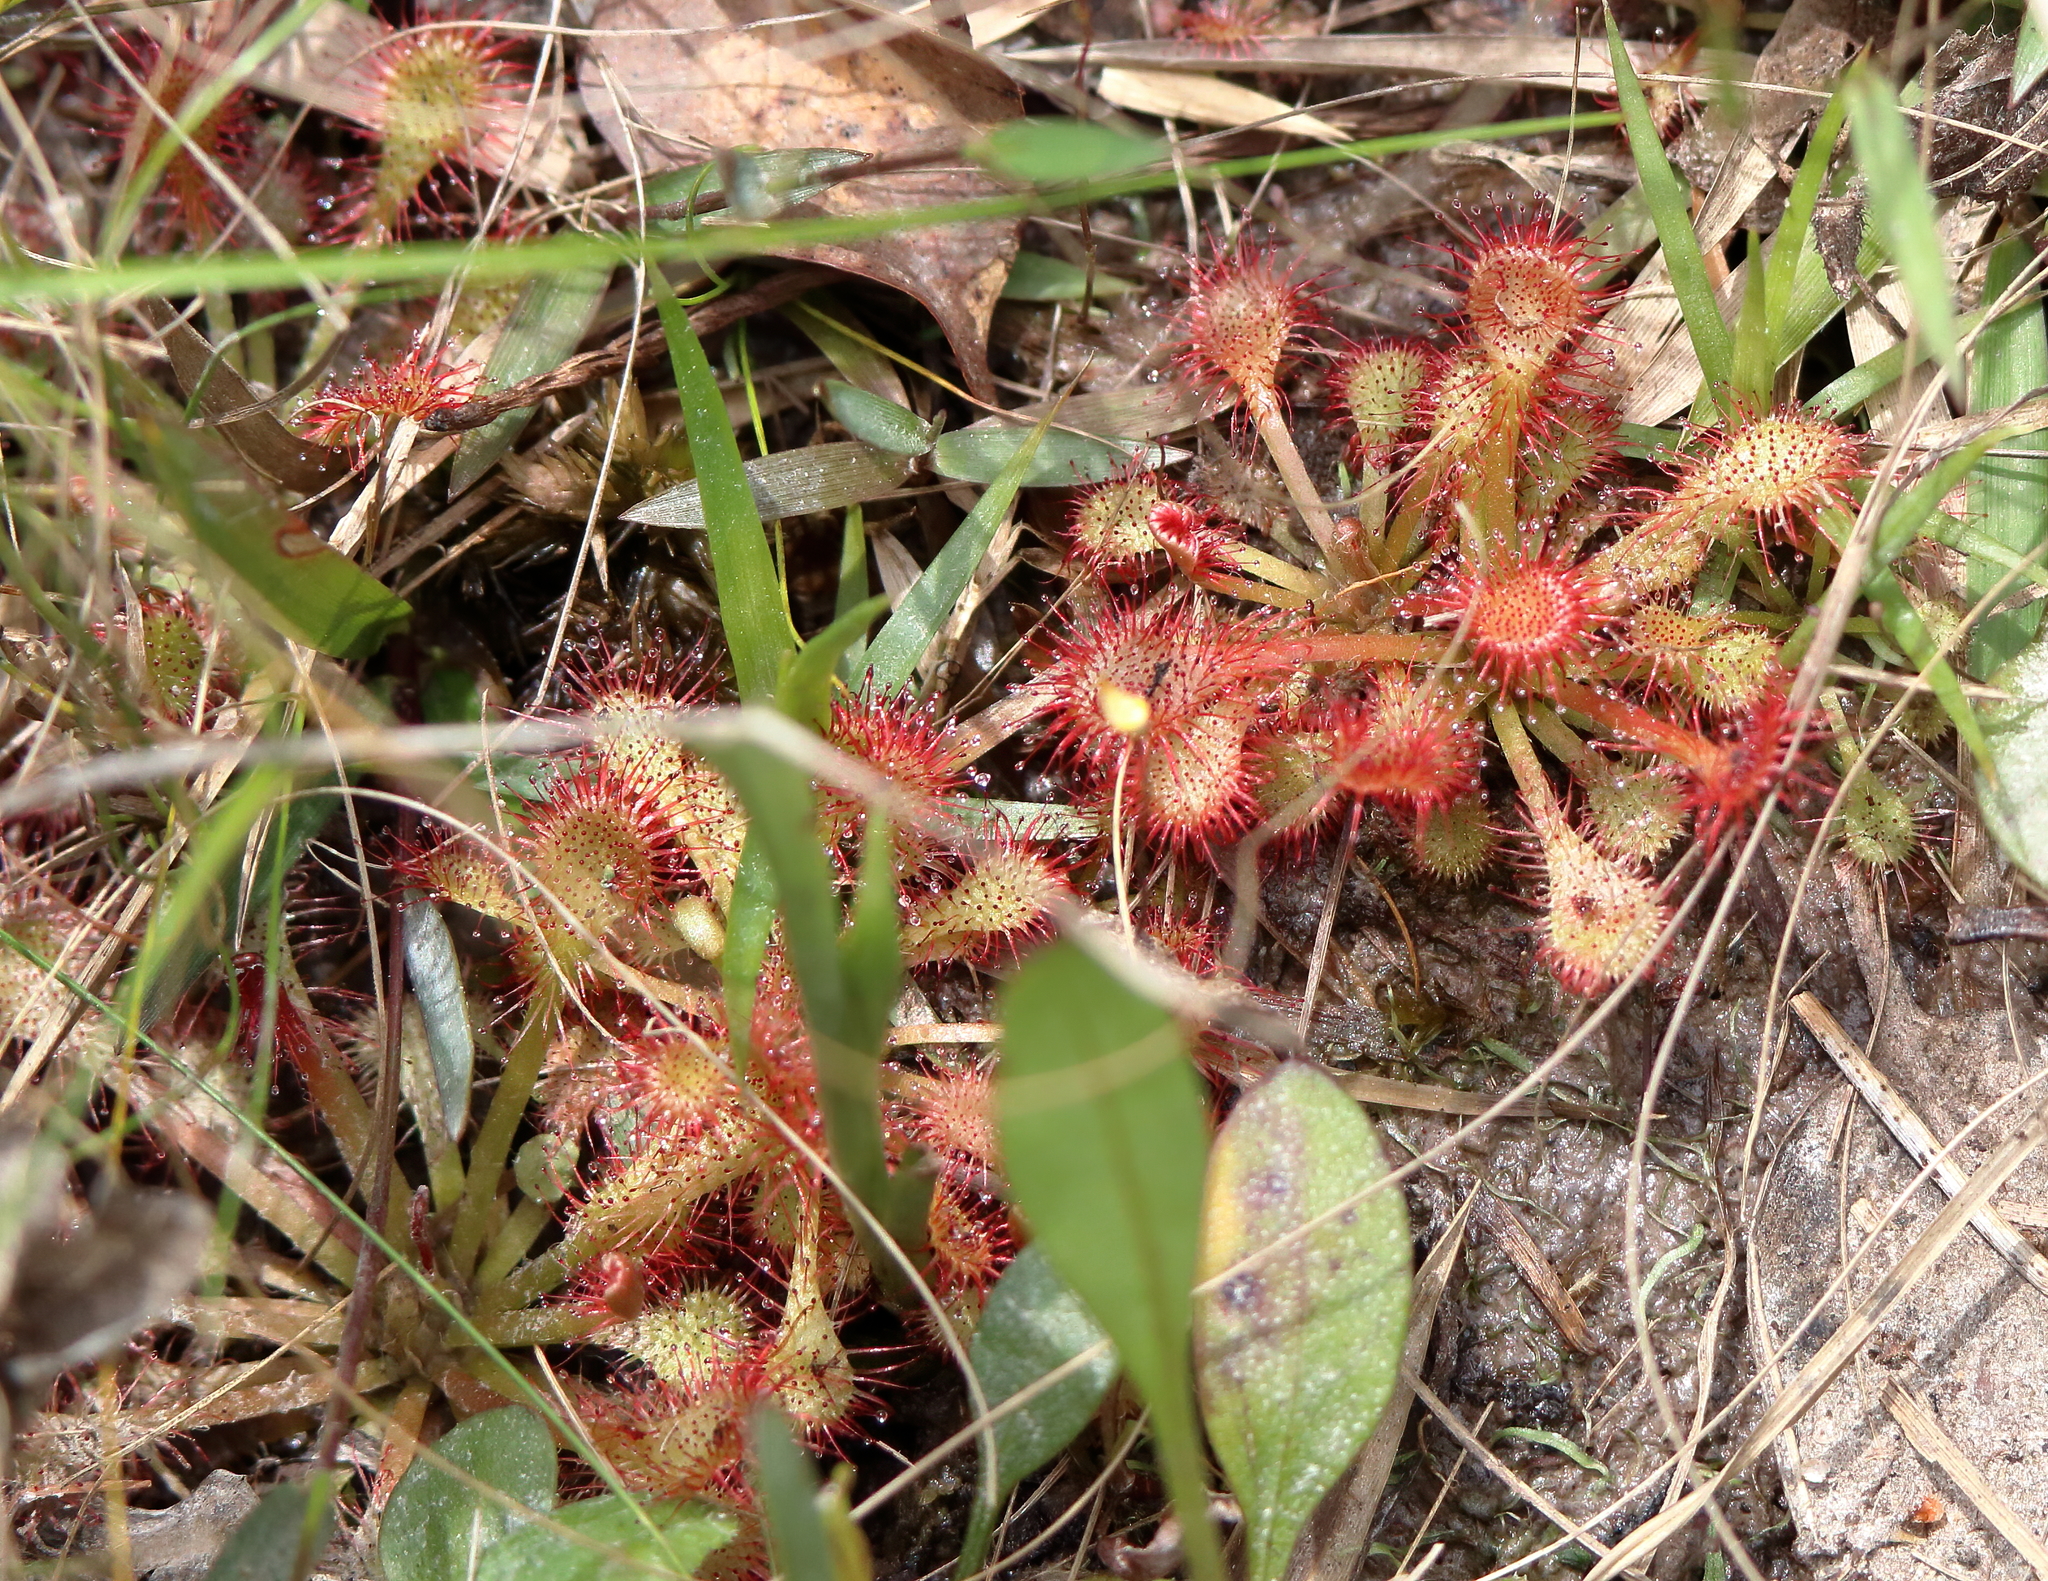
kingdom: Plantae
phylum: Tracheophyta
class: Magnoliopsida
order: Caryophyllales
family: Droseraceae
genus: Drosera
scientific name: Drosera capillaris
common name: Pink sundew
